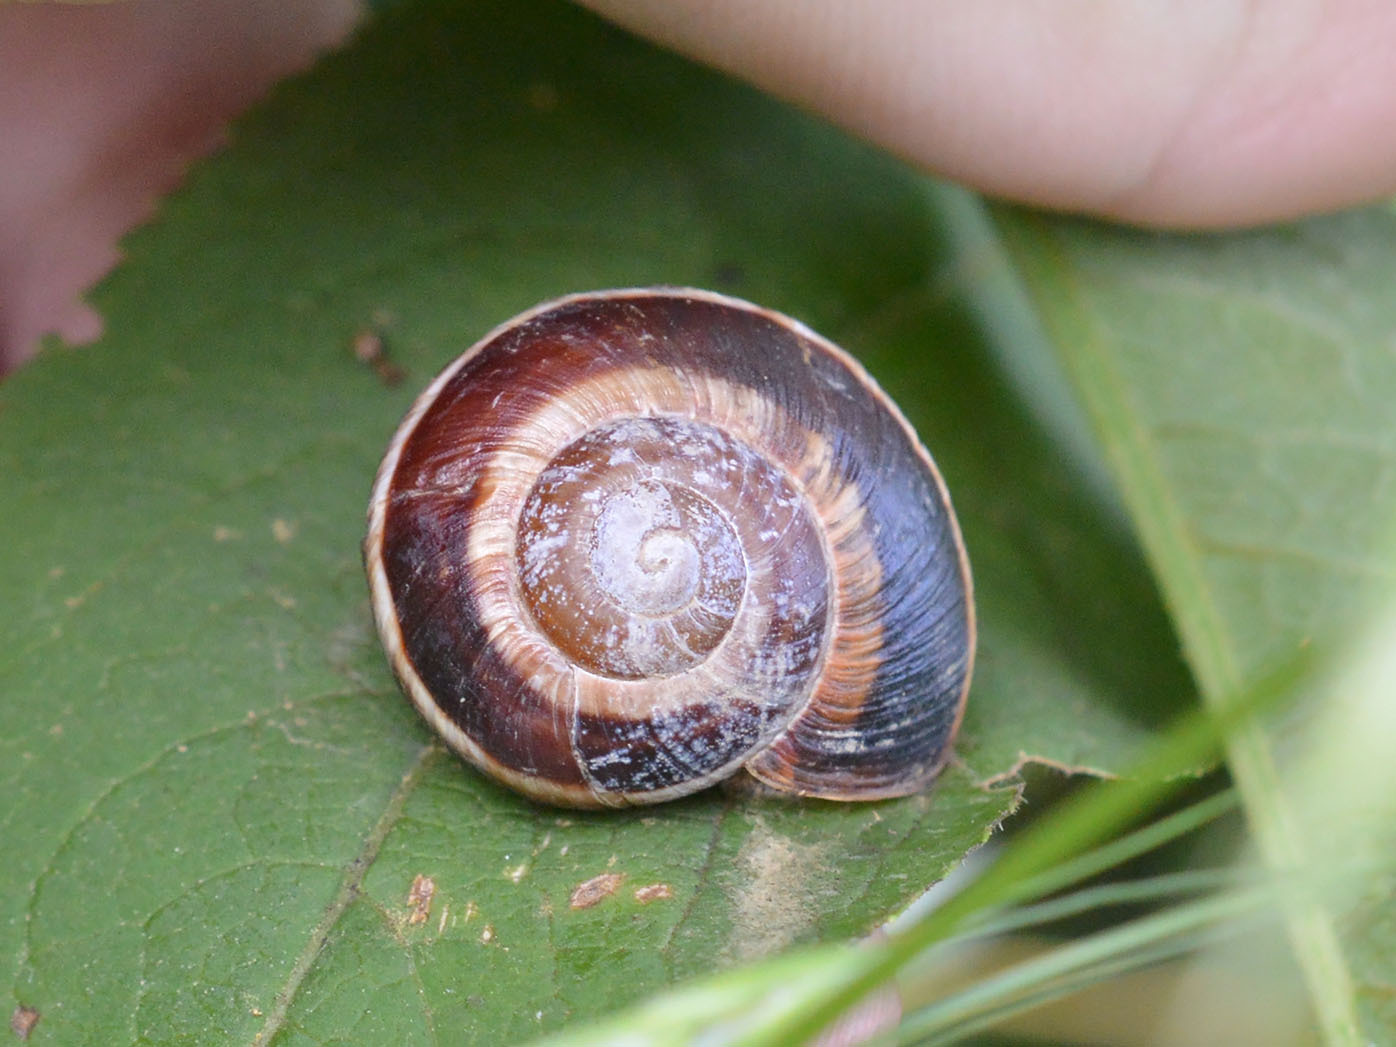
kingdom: Animalia
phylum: Mollusca
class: Gastropoda
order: Stylommatophora
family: Helicidae
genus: Helix
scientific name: Helix lucorum
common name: Turkish snail
